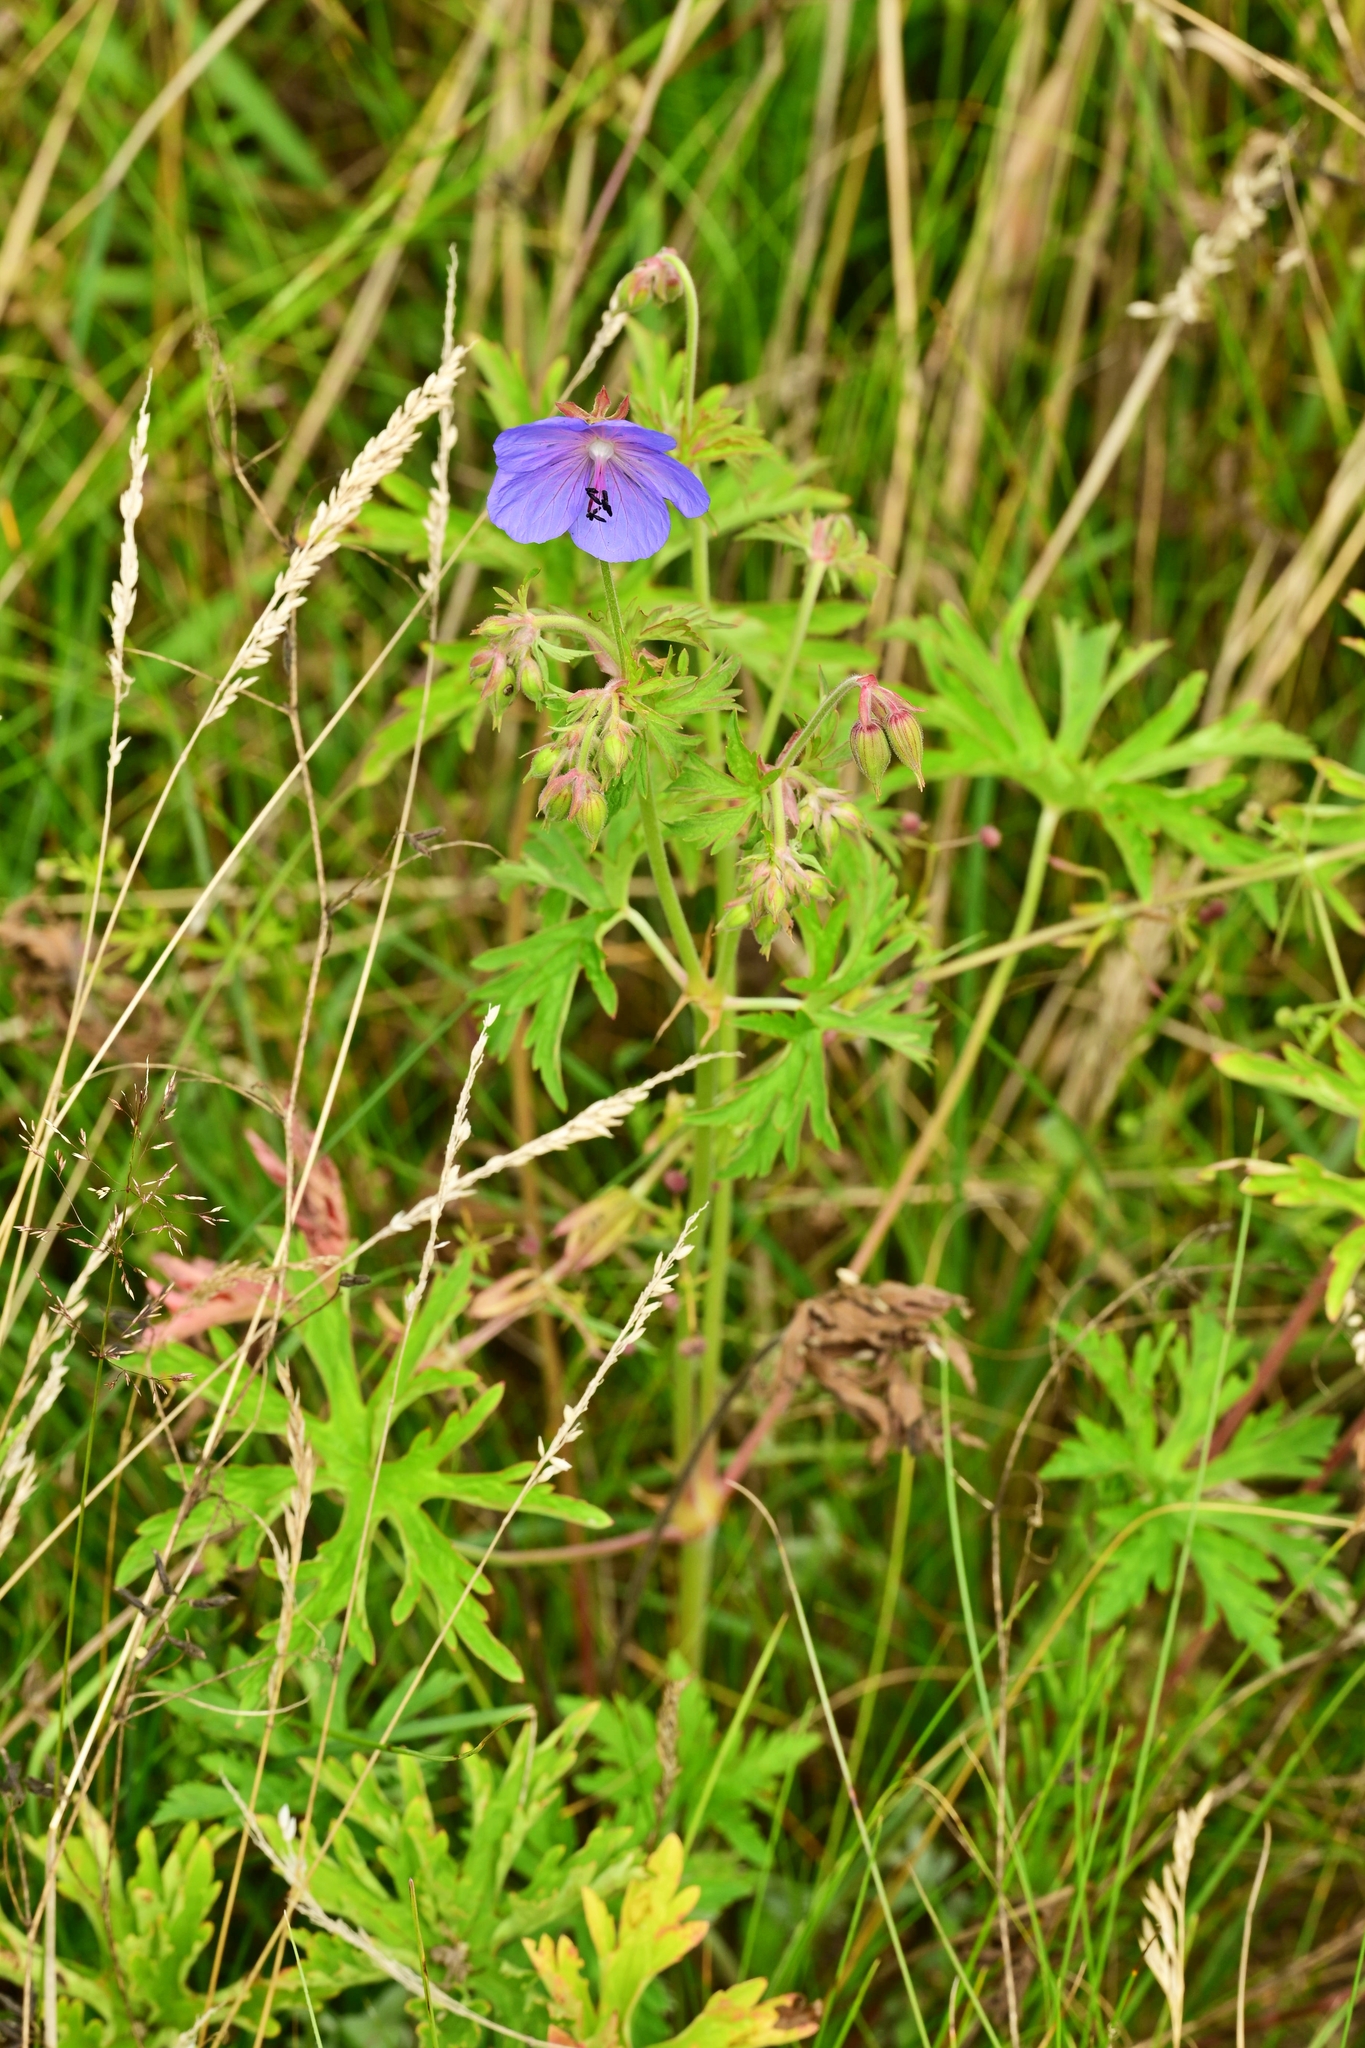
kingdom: Plantae
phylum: Tracheophyta
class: Magnoliopsida
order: Geraniales
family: Geraniaceae
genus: Geranium
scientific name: Geranium pratense
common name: Meadow crane's-bill
